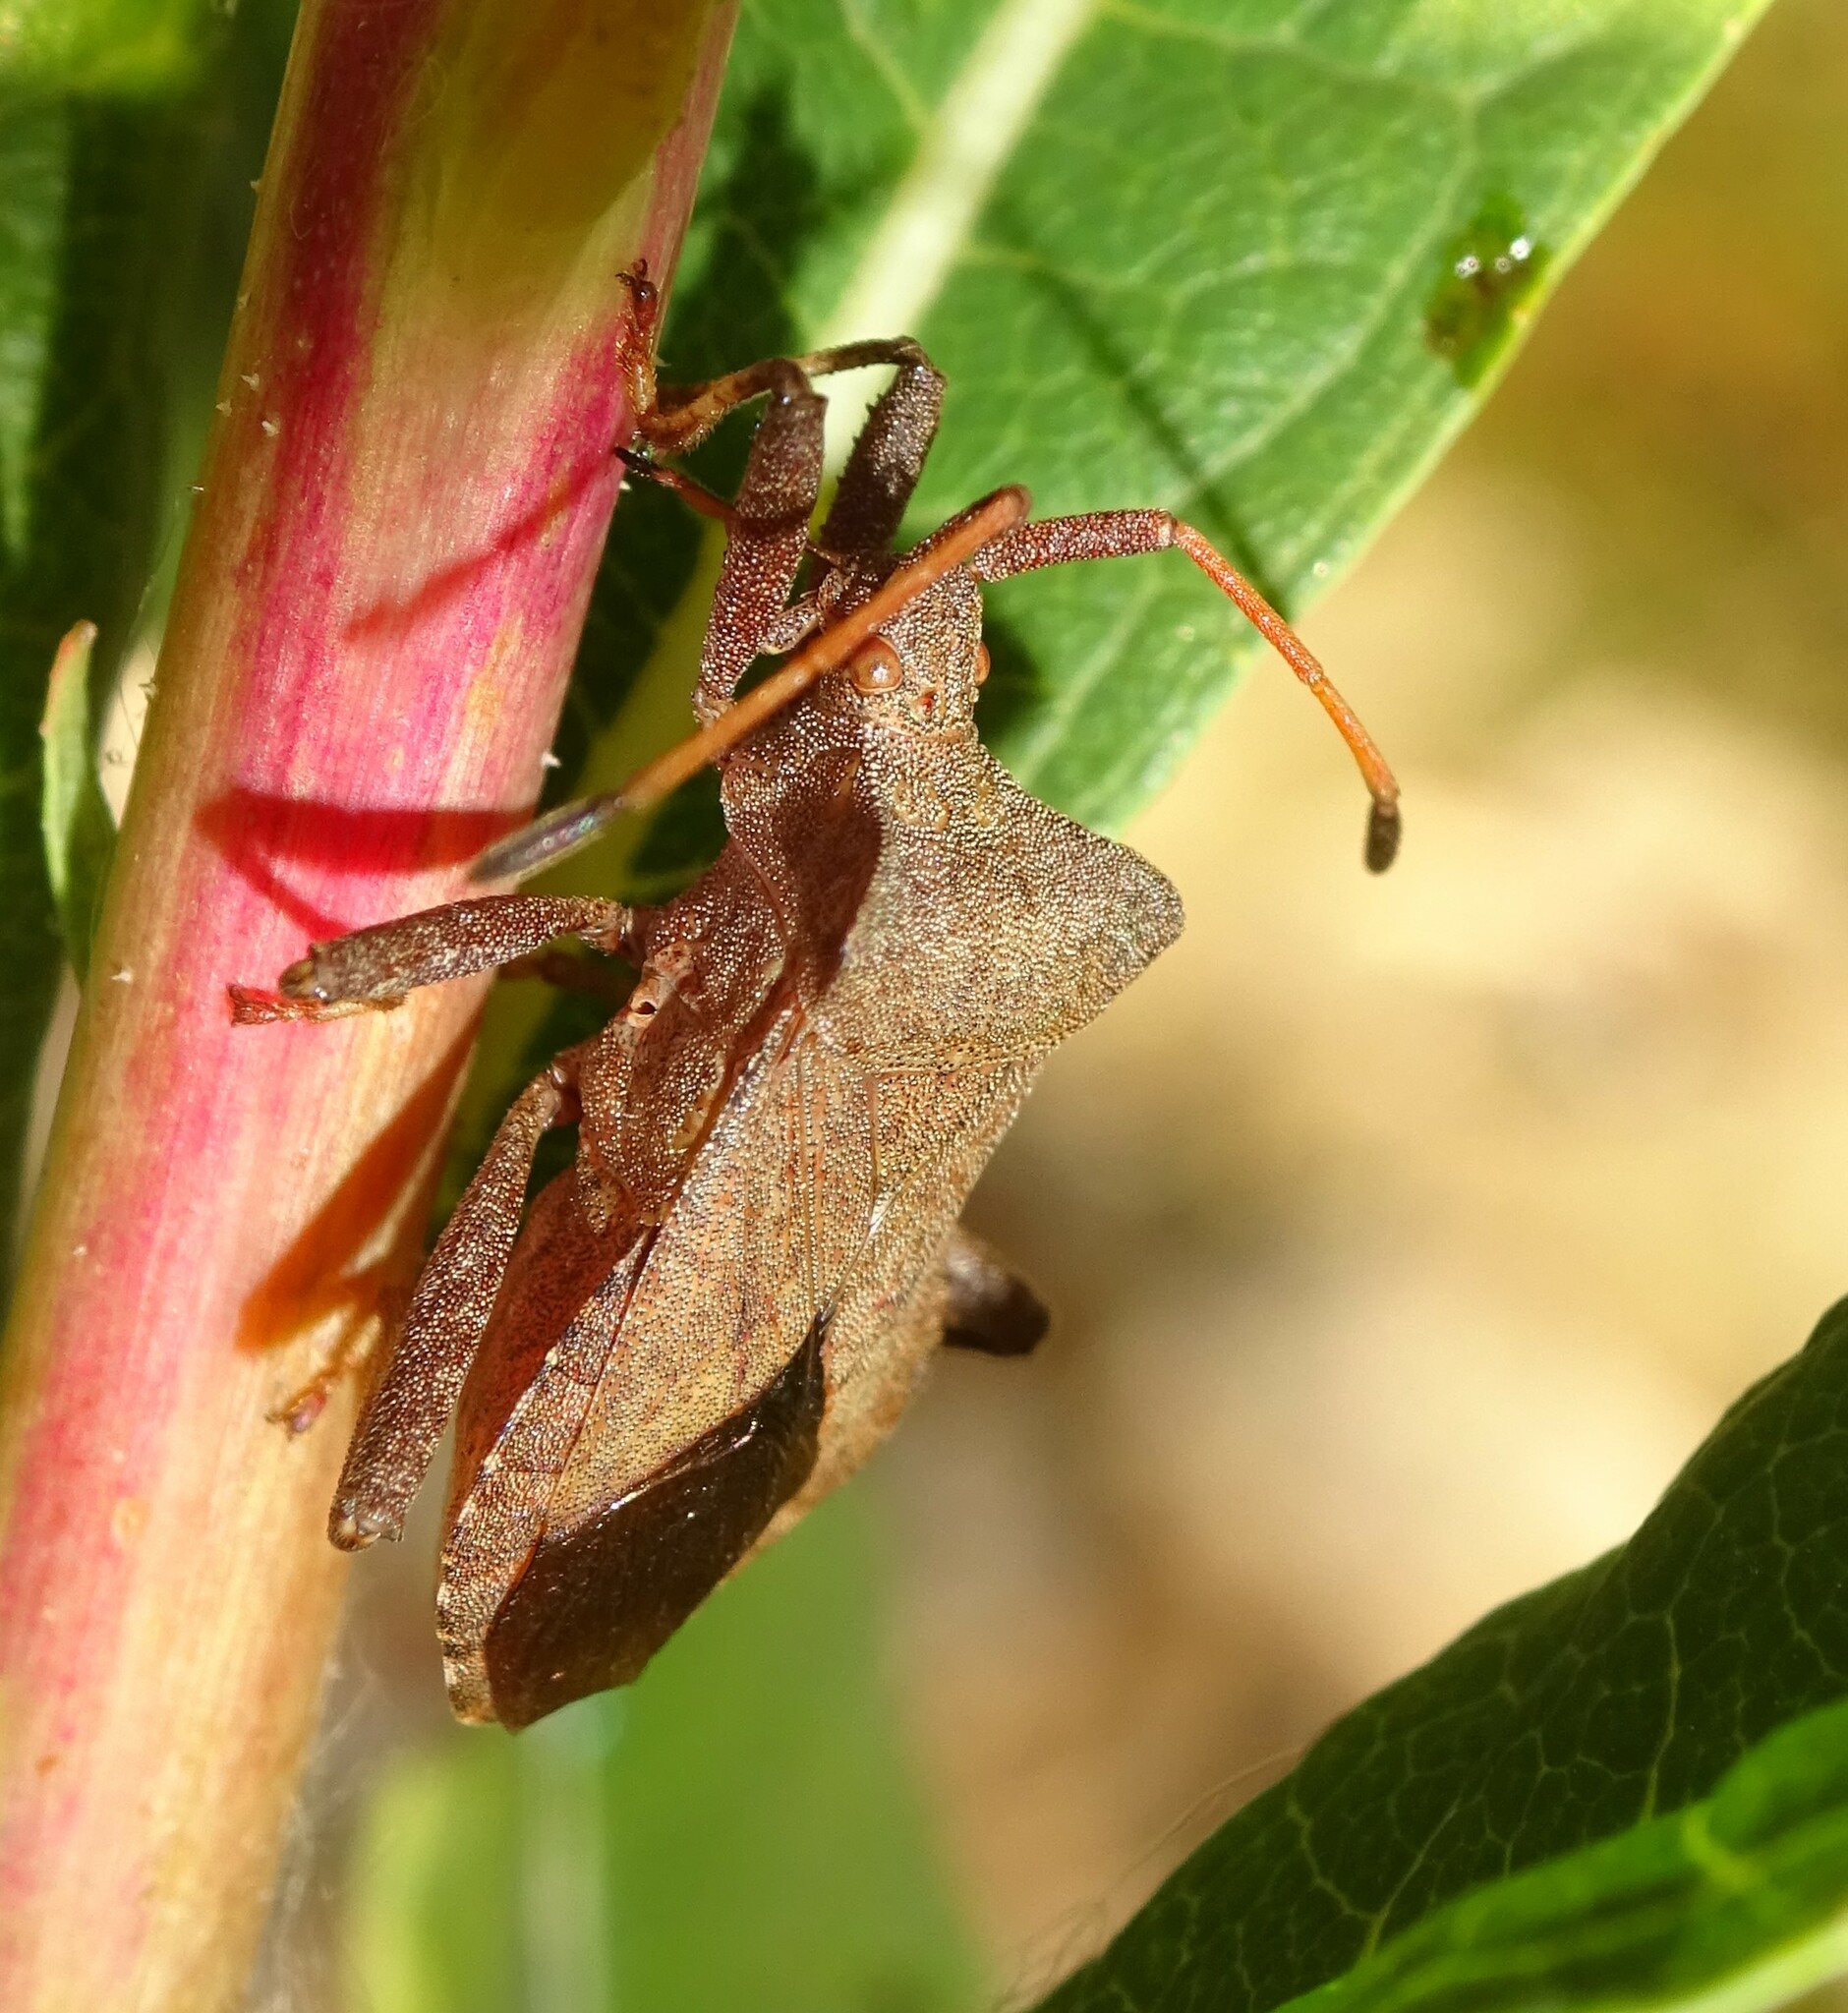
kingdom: Animalia
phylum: Arthropoda
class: Insecta
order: Hemiptera
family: Coreidae
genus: Coreus
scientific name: Coreus marginatus
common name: Dock bug
